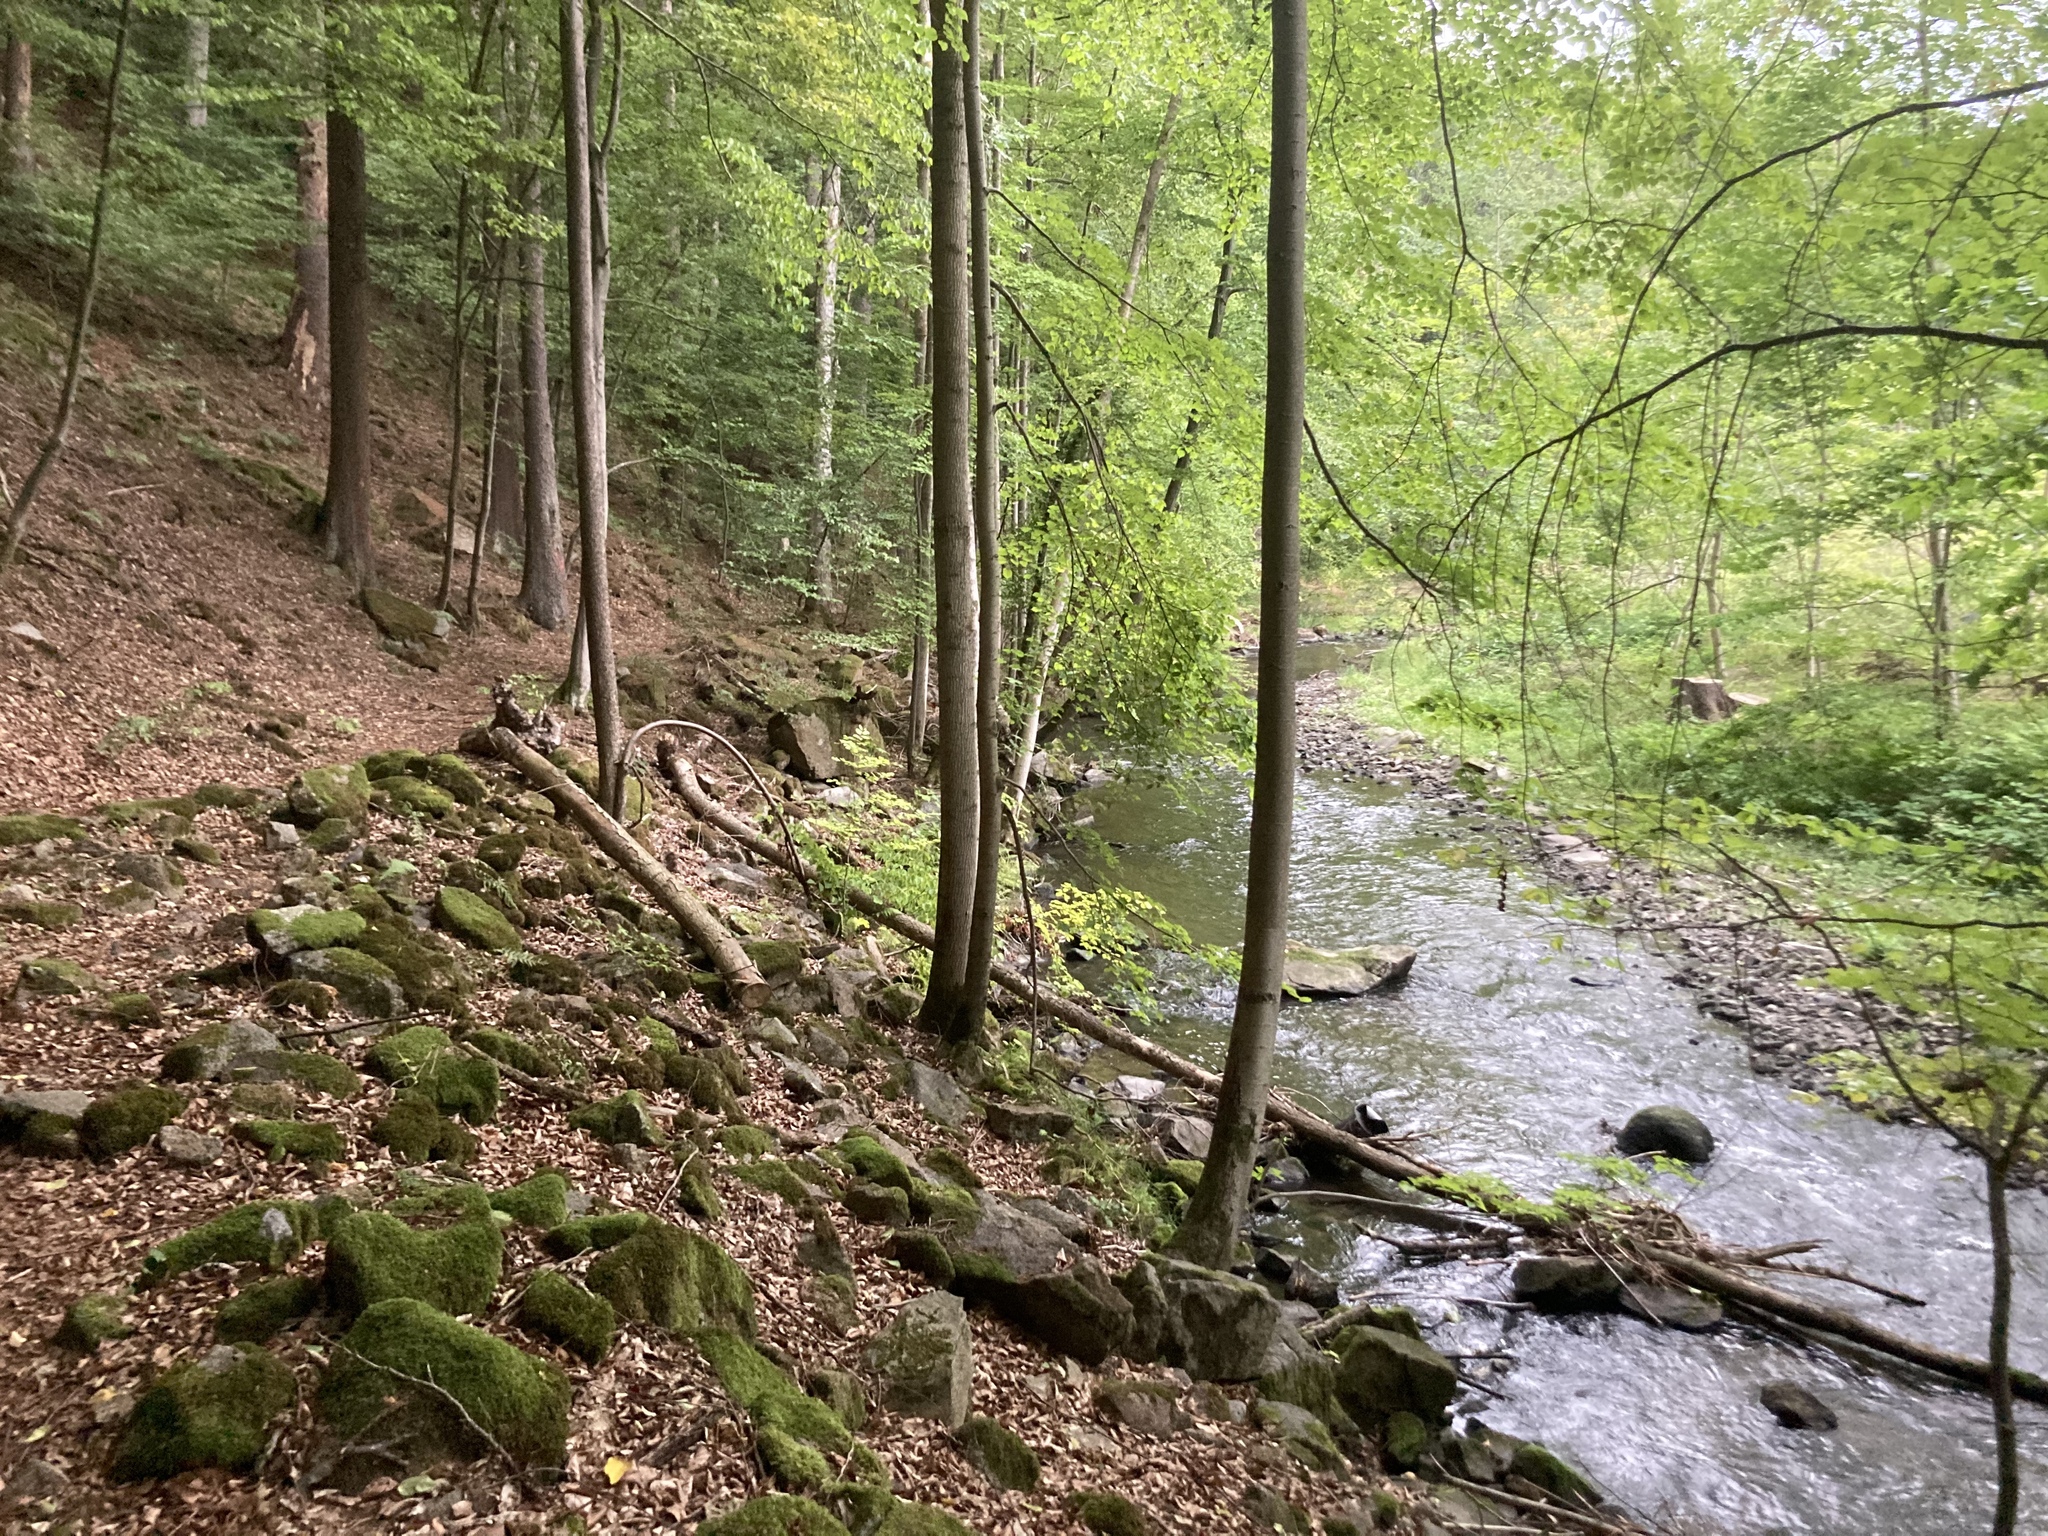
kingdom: Plantae
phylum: Tracheophyta
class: Magnoliopsida
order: Fagales
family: Fagaceae
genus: Fagus
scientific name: Fagus sylvatica
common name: Beech
